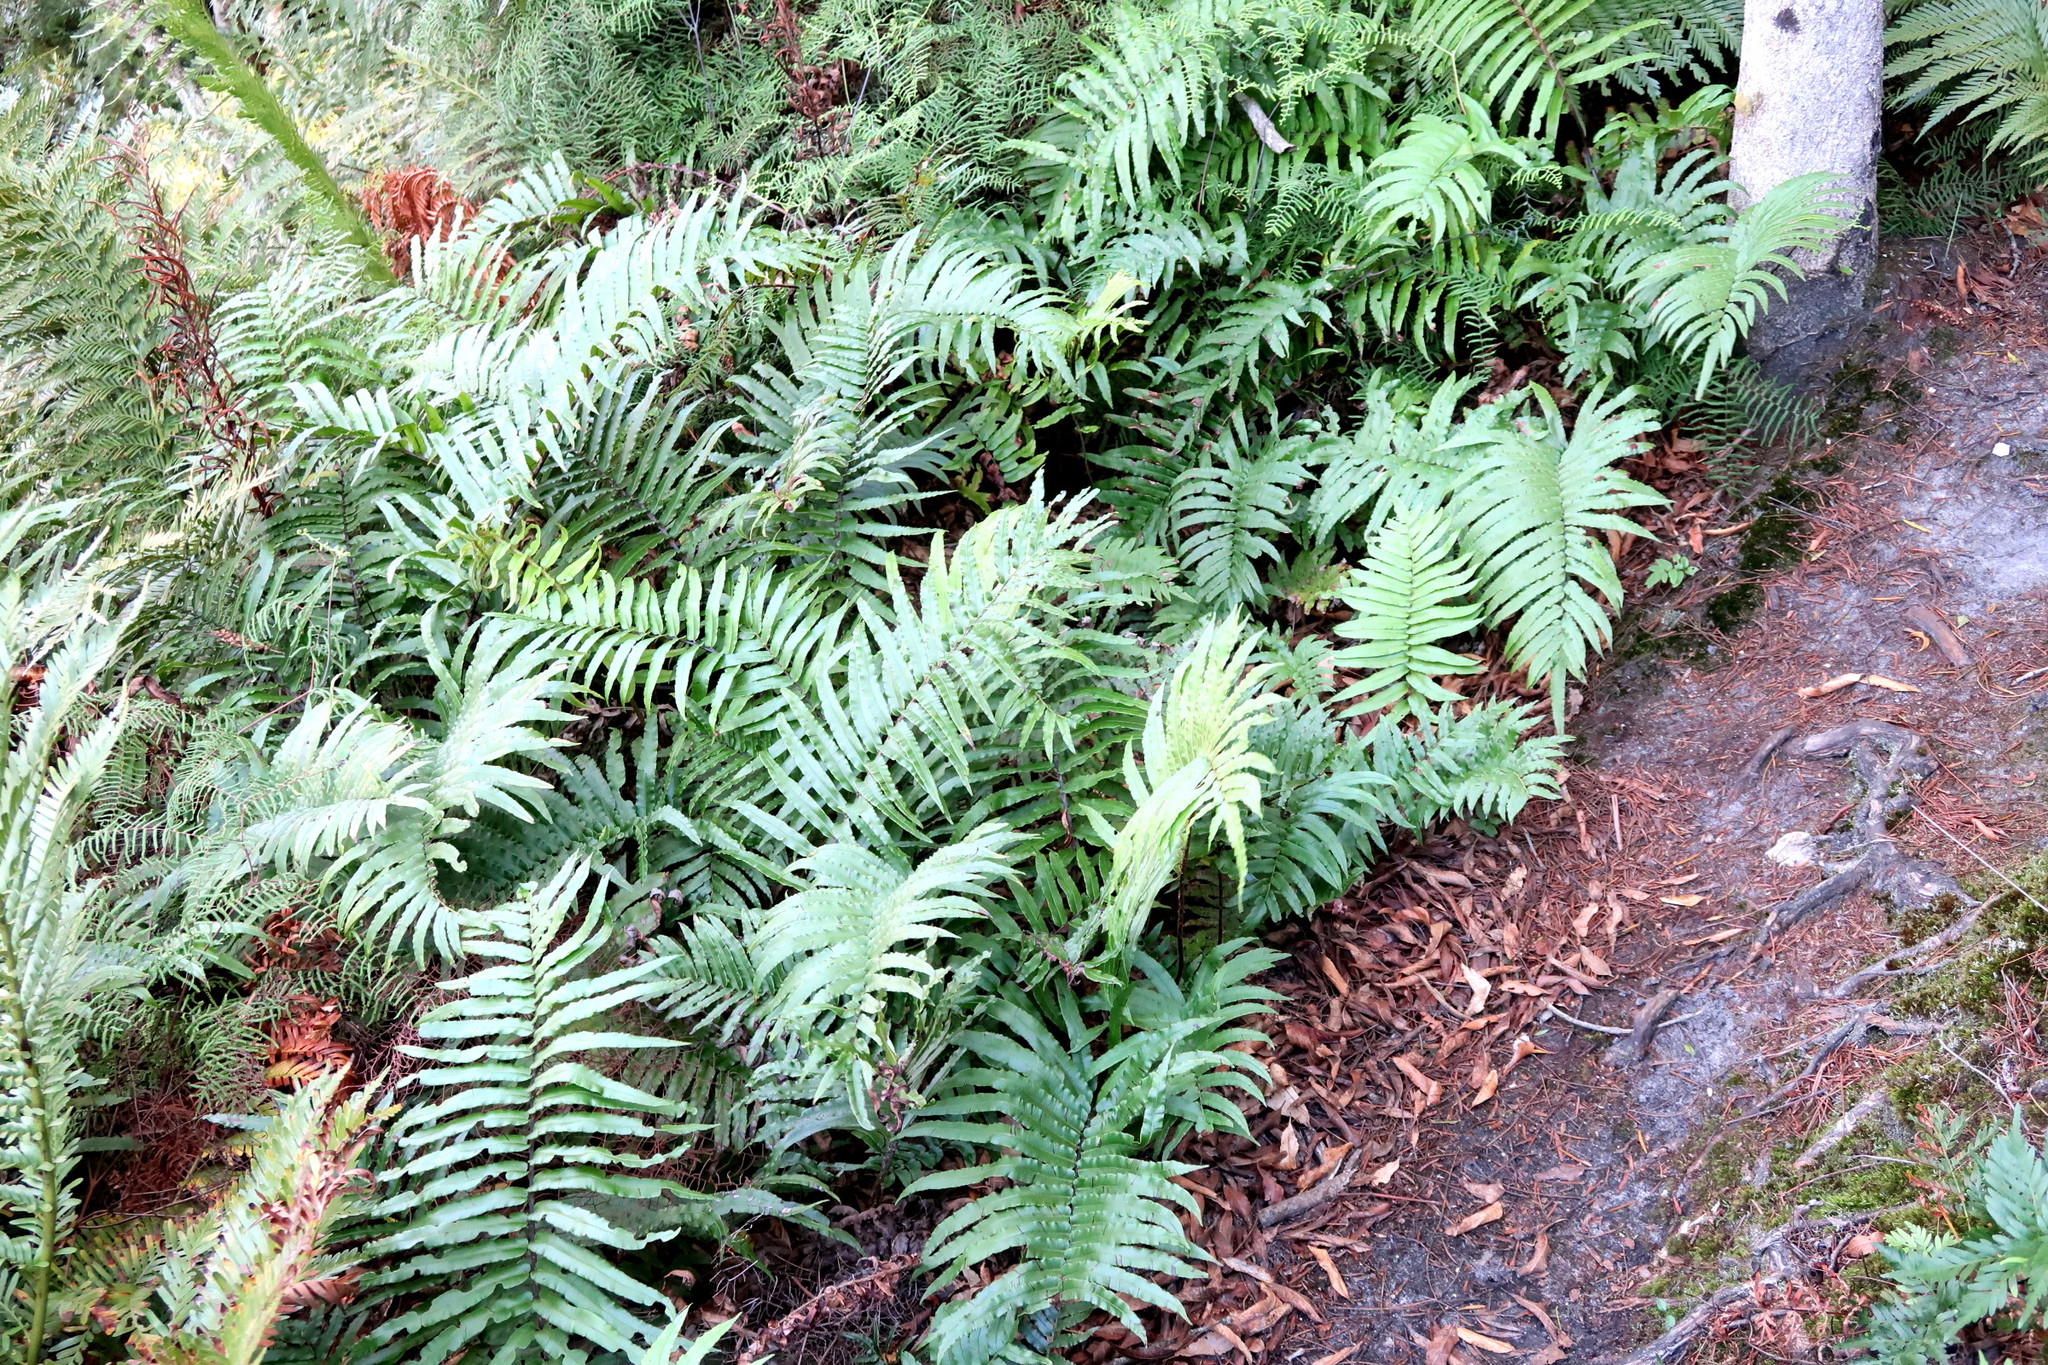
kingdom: Plantae
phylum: Tracheophyta
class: Polypodiopsida
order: Polypodiales
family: Blechnaceae
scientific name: Blechnaceae
